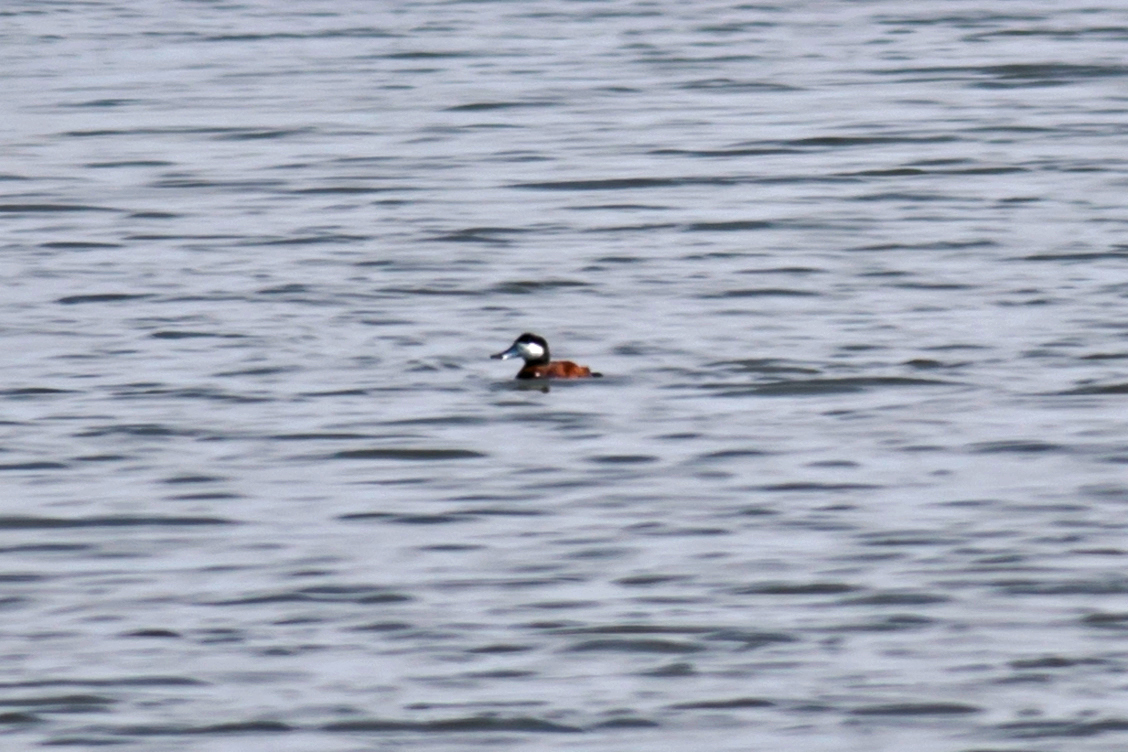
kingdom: Animalia
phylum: Chordata
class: Aves
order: Anseriformes
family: Anatidae
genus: Oxyura
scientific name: Oxyura jamaicensis
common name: Ruddy duck
